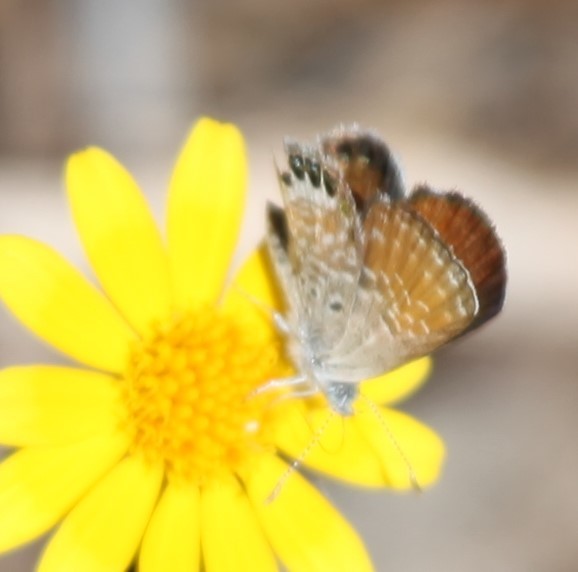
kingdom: Animalia
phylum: Arthropoda
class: Insecta
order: Lepidoptera
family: Lycaenidae
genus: Brephidium
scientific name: Brephidium exilis
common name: Pygmy blue
